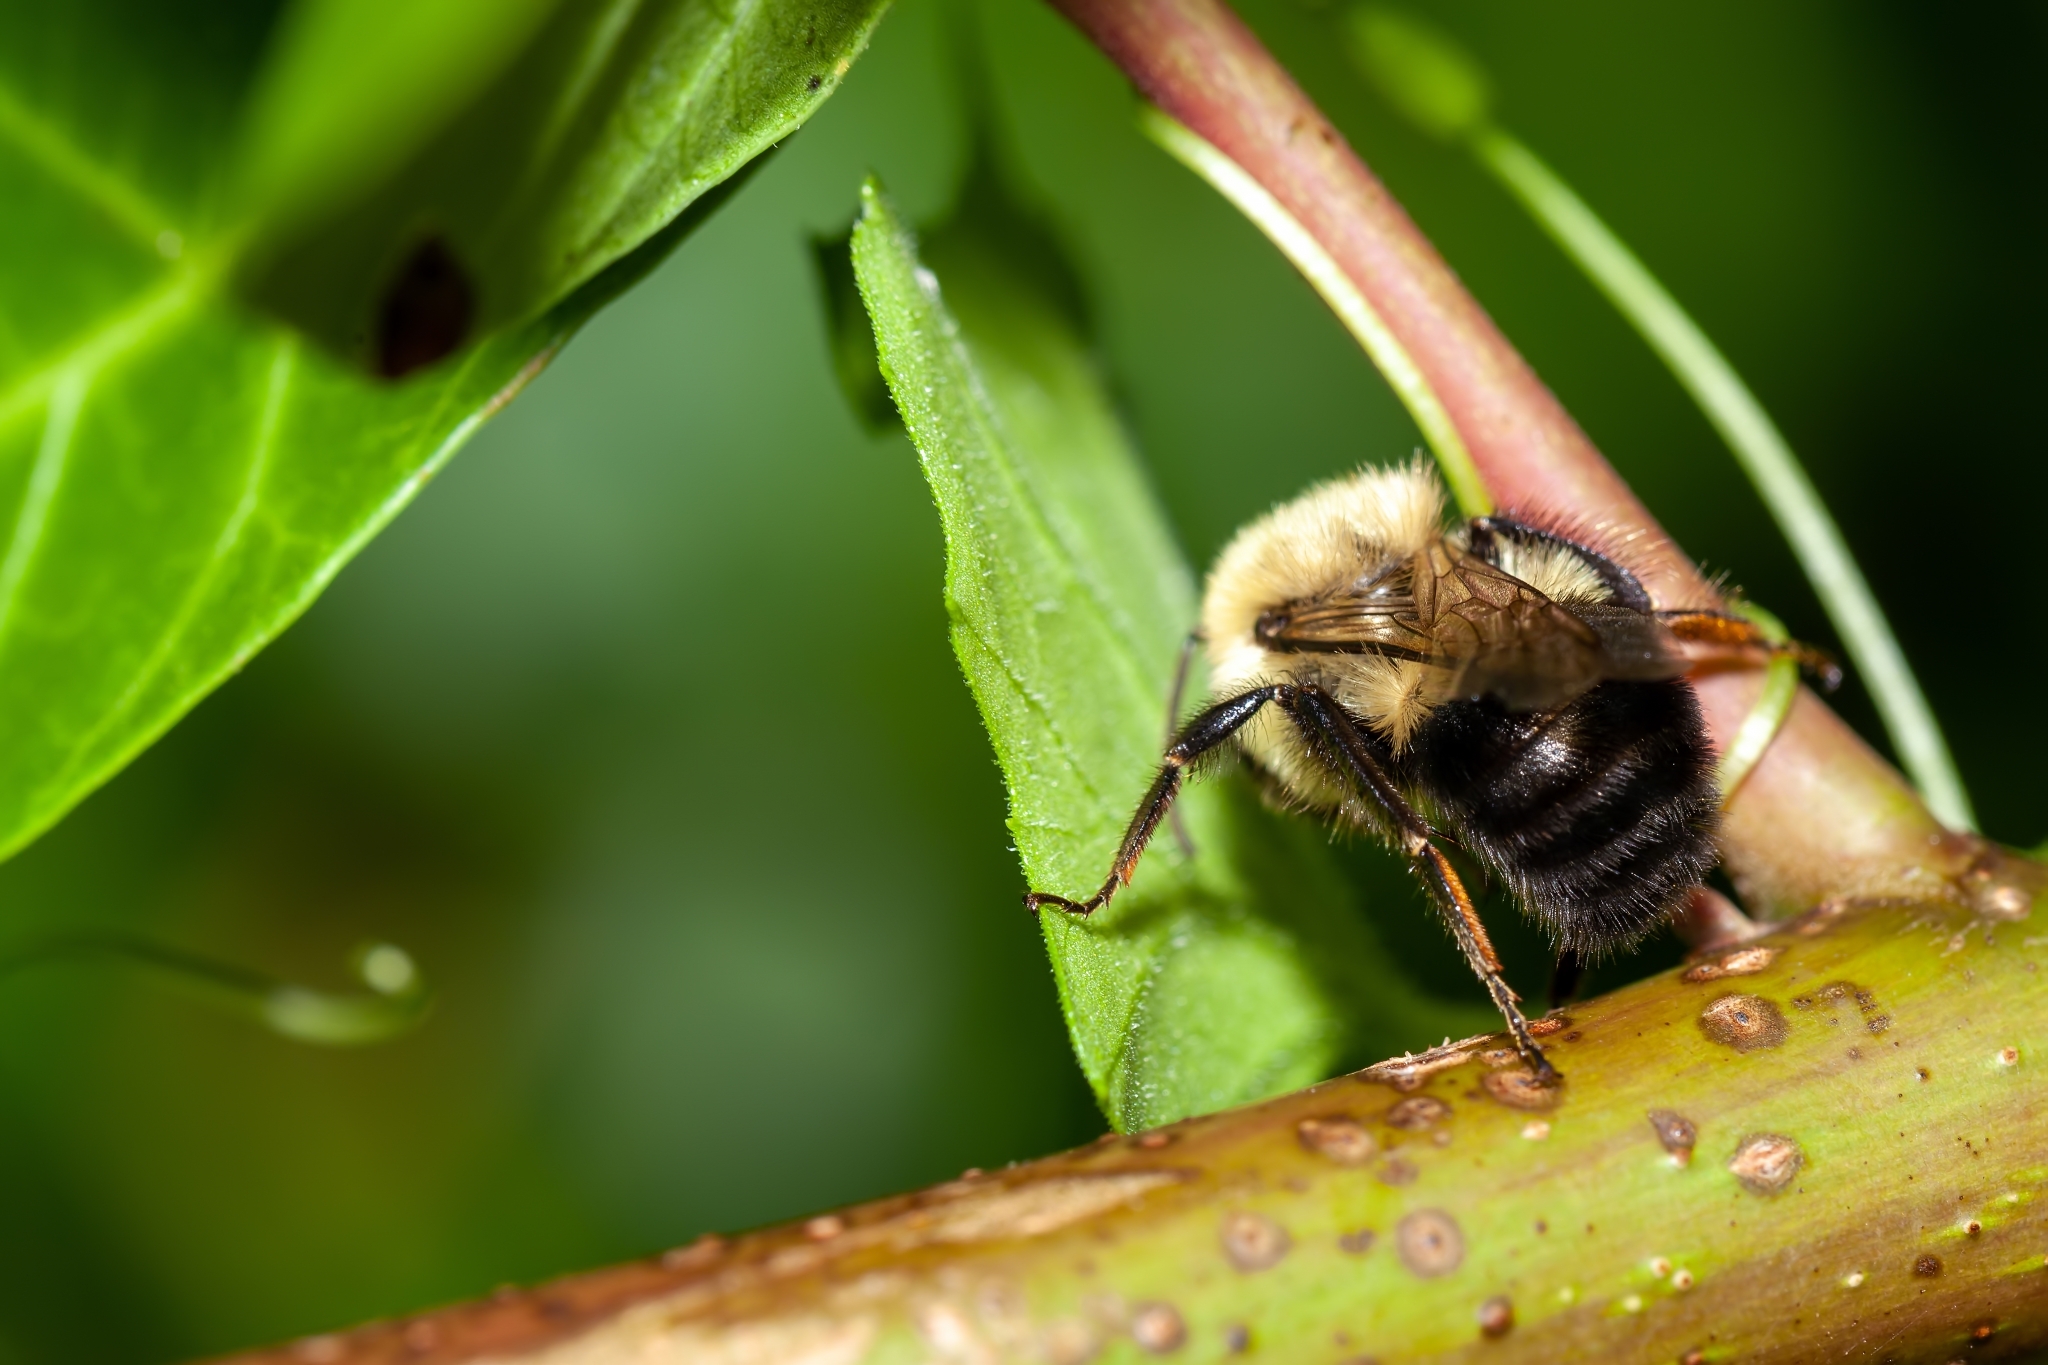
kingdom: Animalia
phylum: Arthropoda
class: Insecta
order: Hymenoptera
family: Apidae
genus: Bombus
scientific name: Bombus impatiens
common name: Common eastern bumble bee
